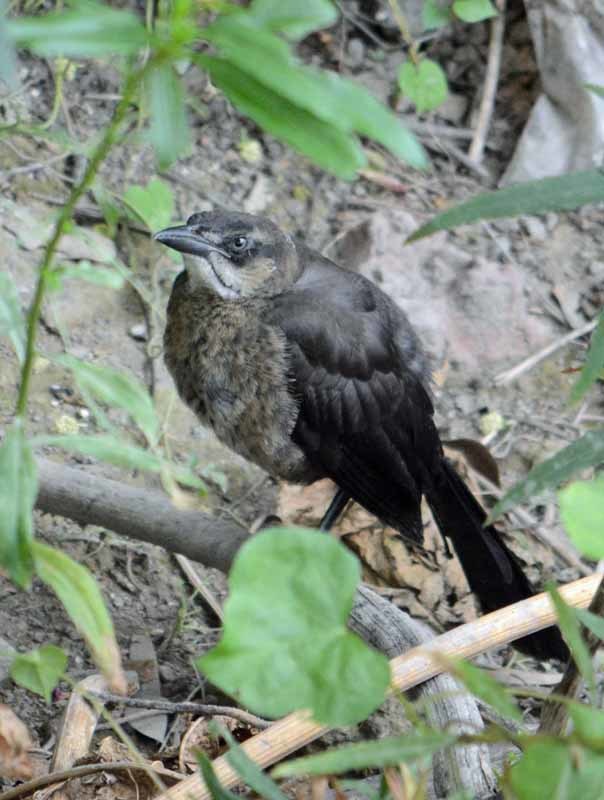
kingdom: Animalia
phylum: Chordata
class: Aves
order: Passeriformes
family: Icteridae
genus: Quiscalus
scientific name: Quiscalus mexicanus
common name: Great-tailed grackle
